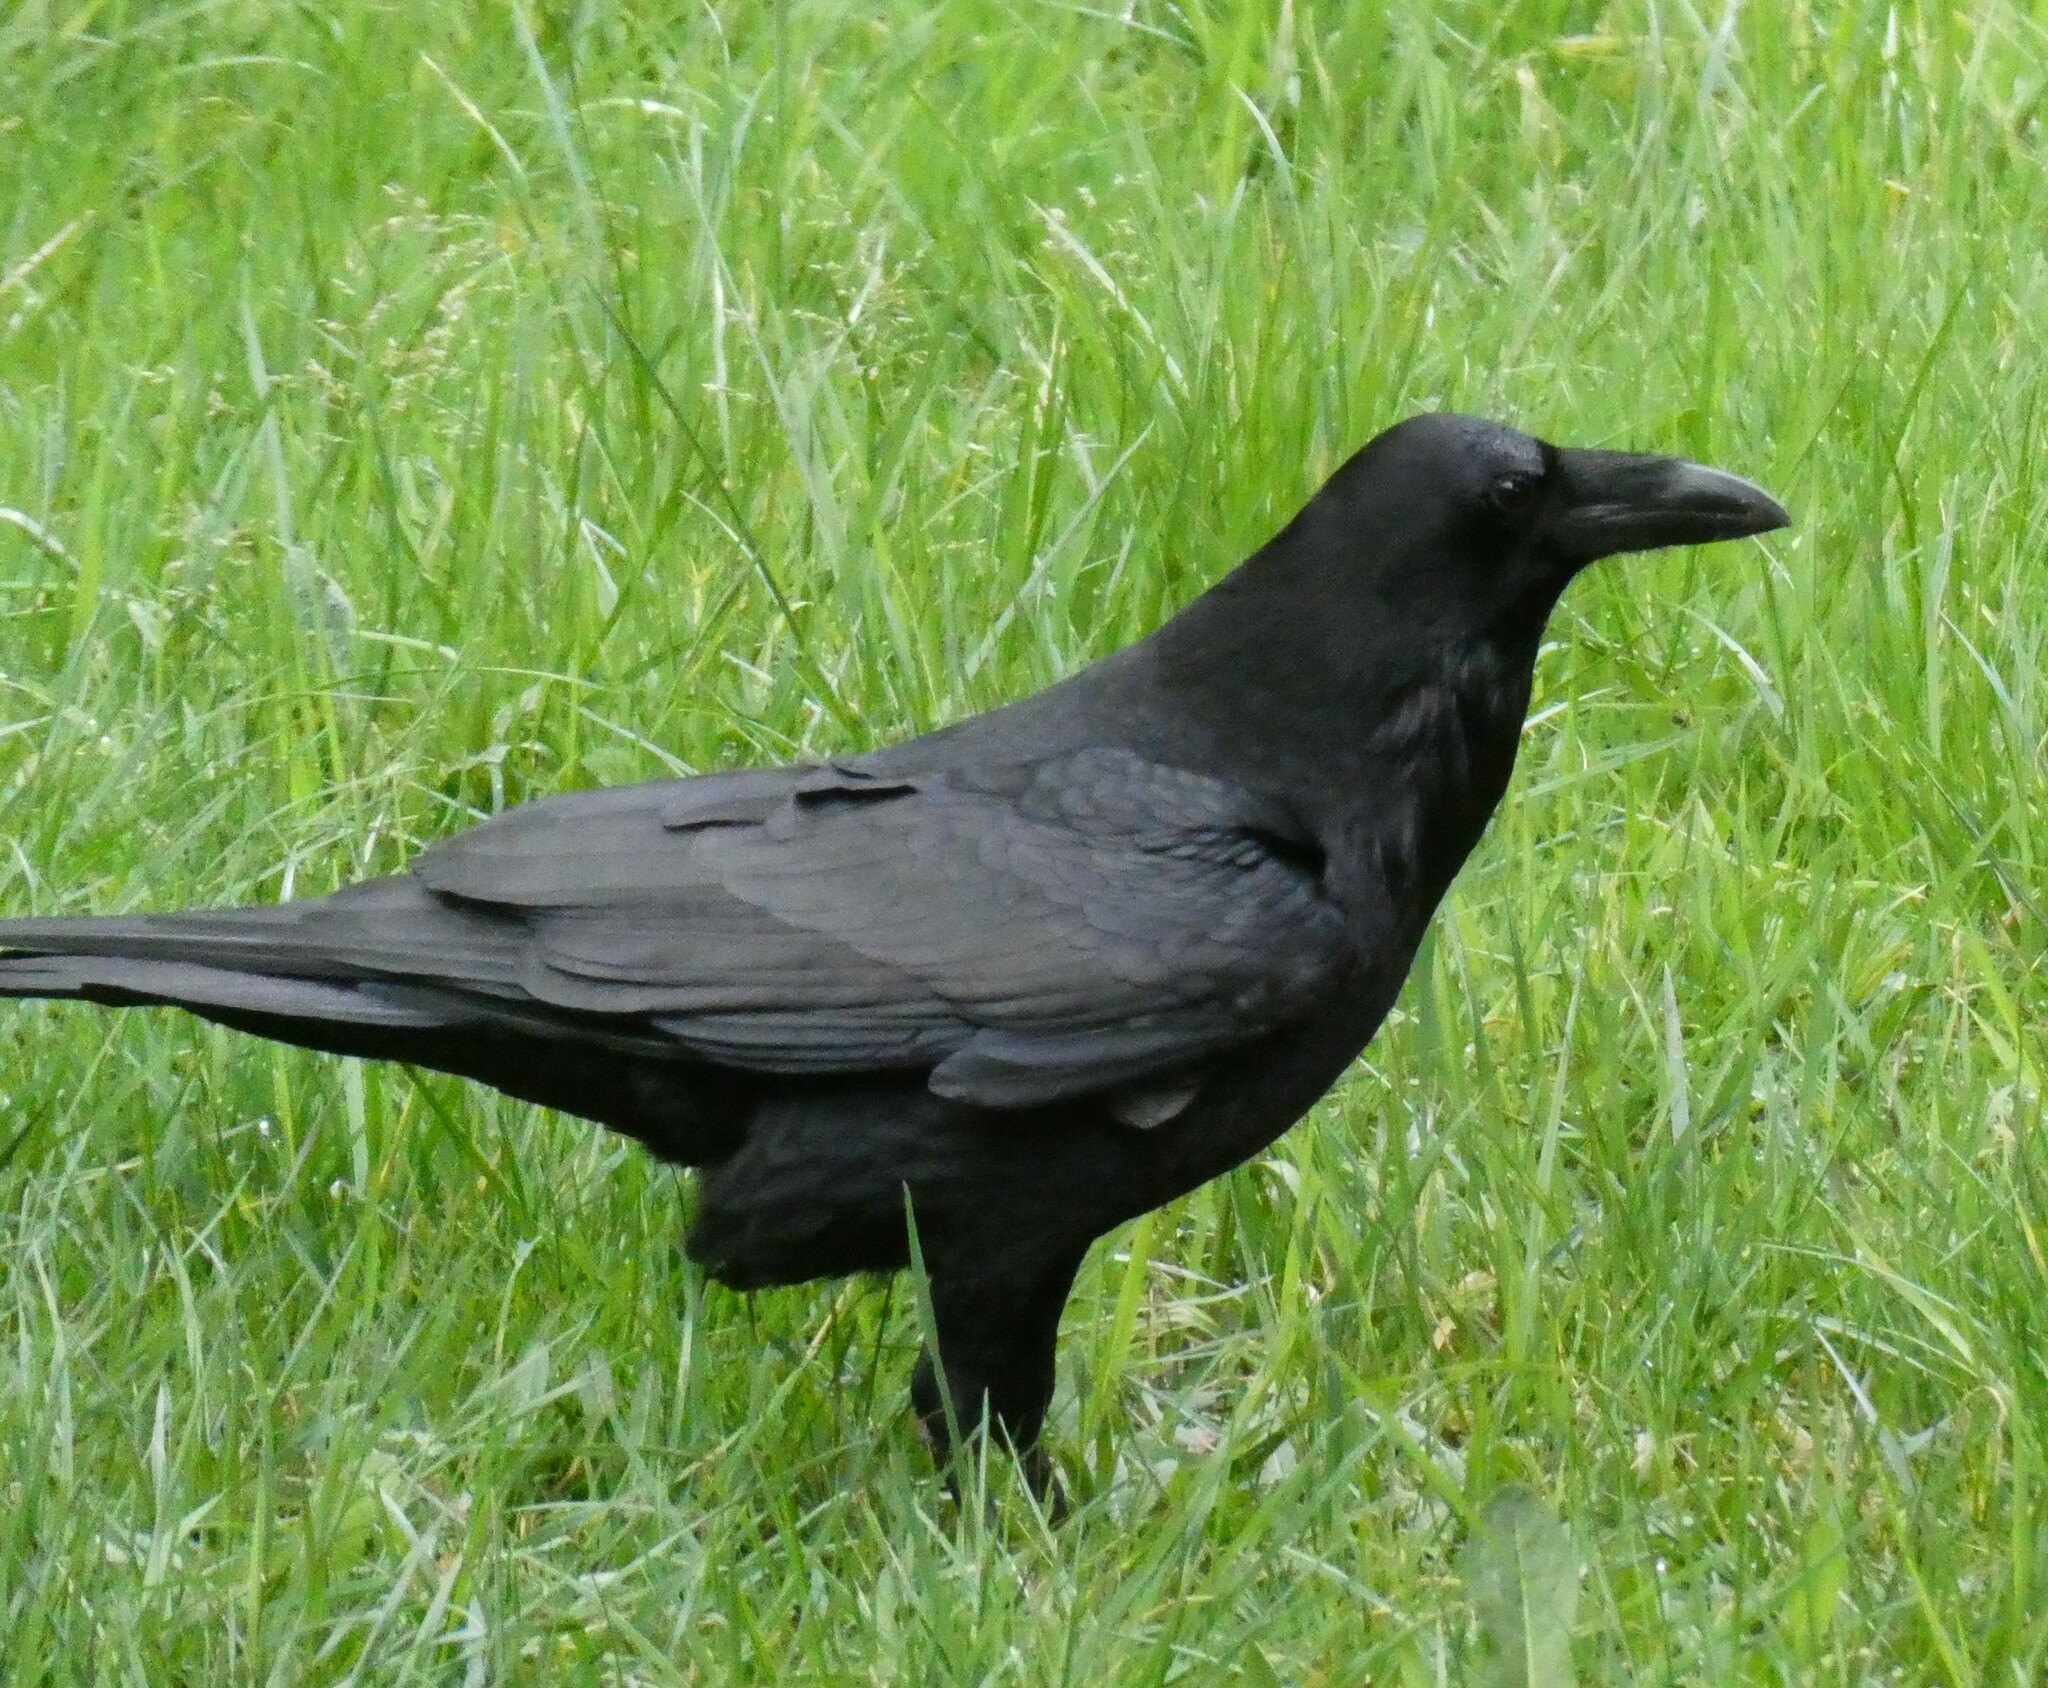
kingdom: Animalia
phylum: Chordata
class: Aves
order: Passeriformes
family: Corvidae
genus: Corvus
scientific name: Corvus corax
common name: Common raven
